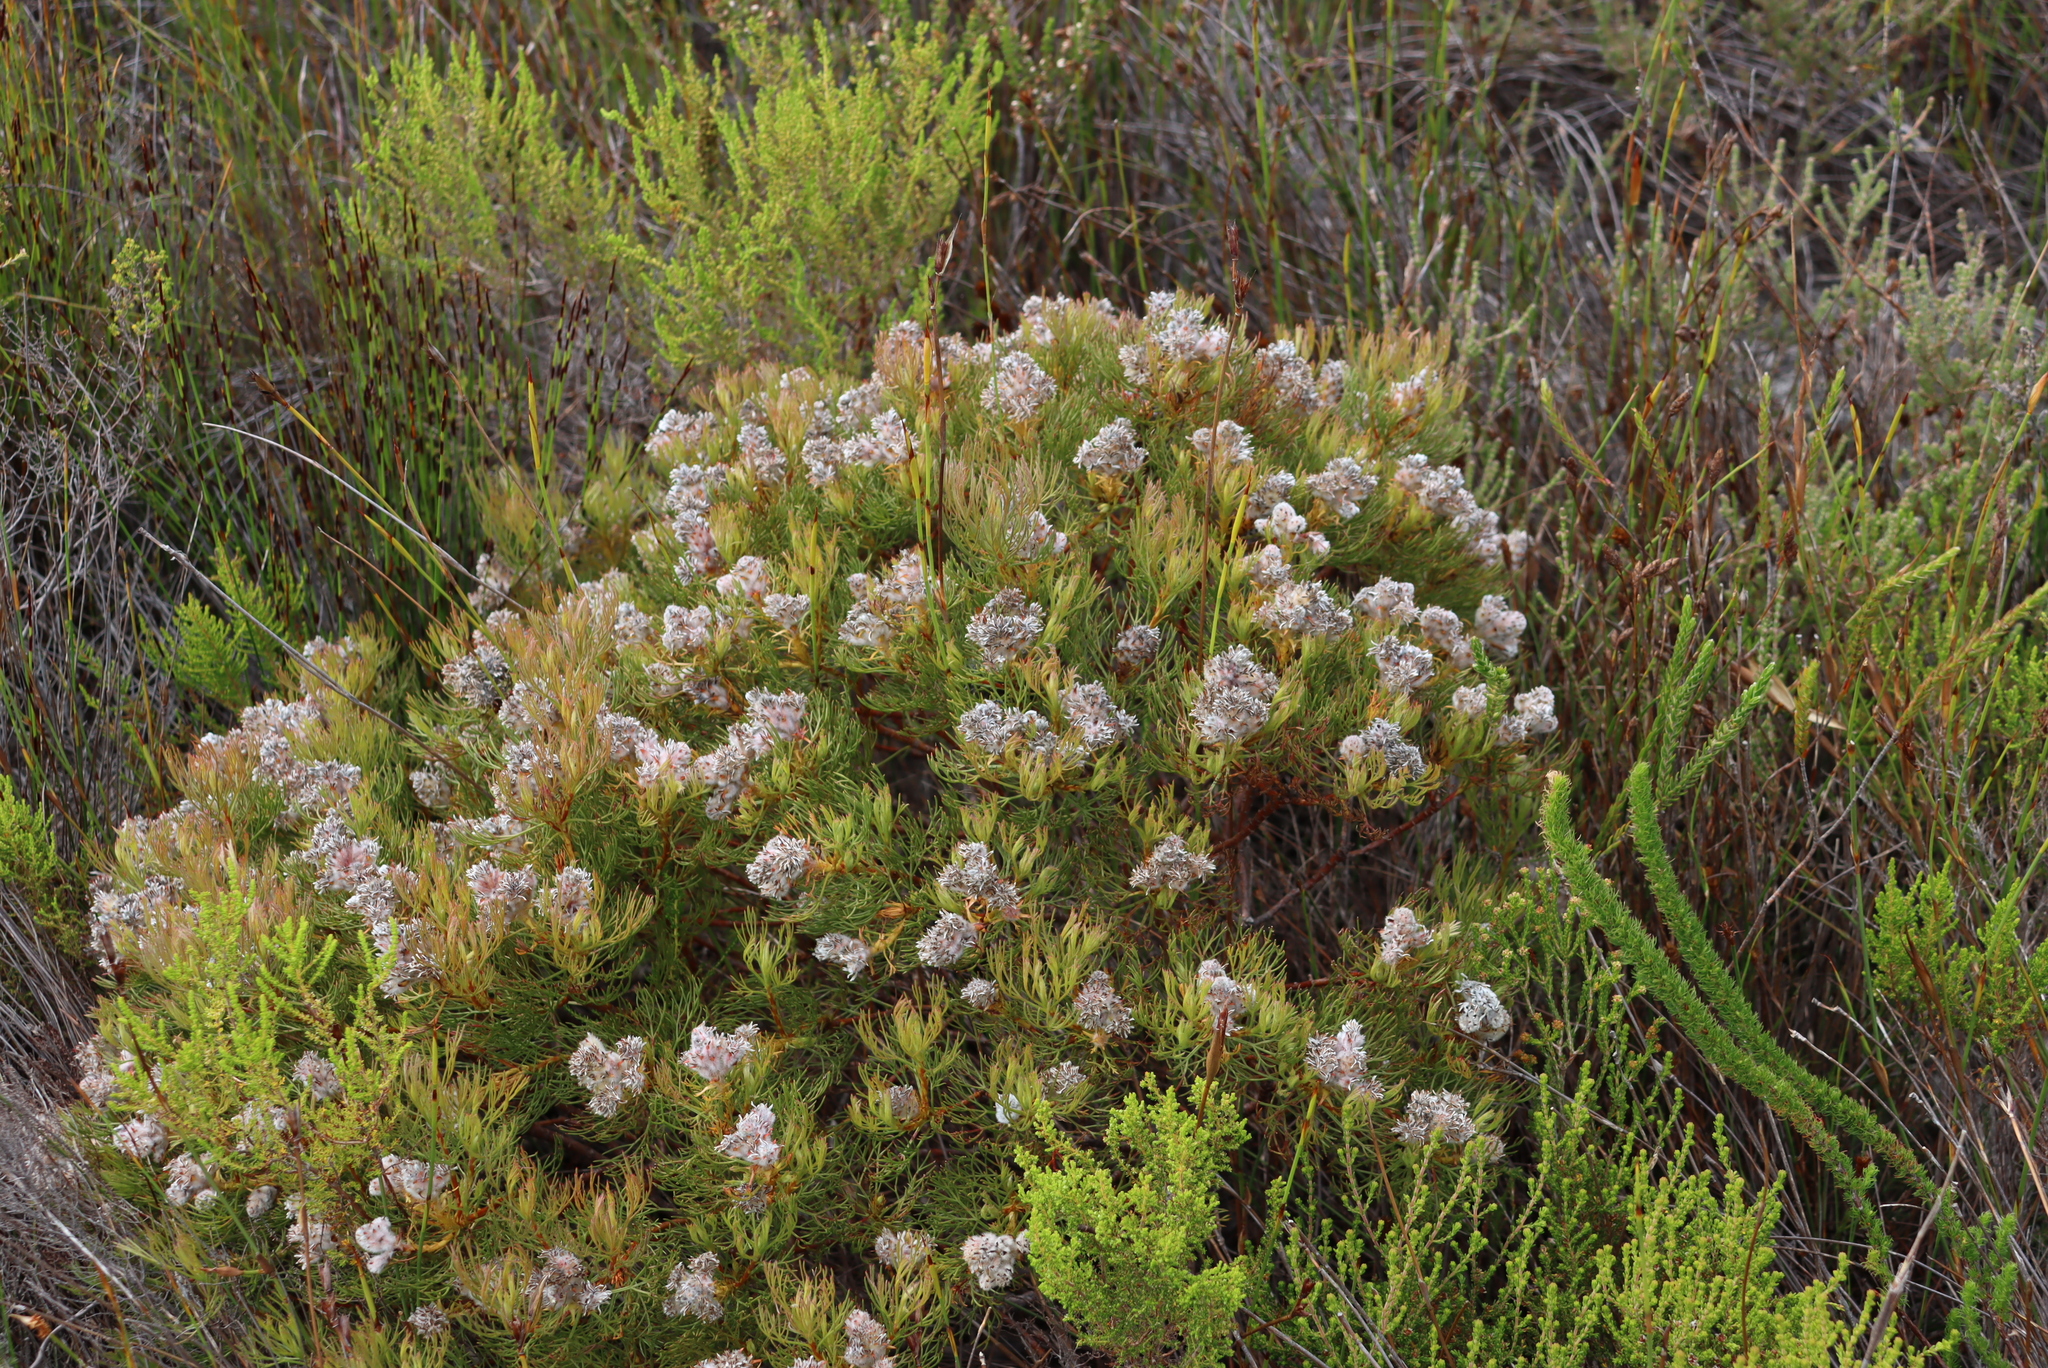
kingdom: Plantae
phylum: Tracheophyta
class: Magnoliopsida
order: Proteales
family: Proteaceae
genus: Serruria
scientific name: Serruria glomerata
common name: Cluster spiderhead
